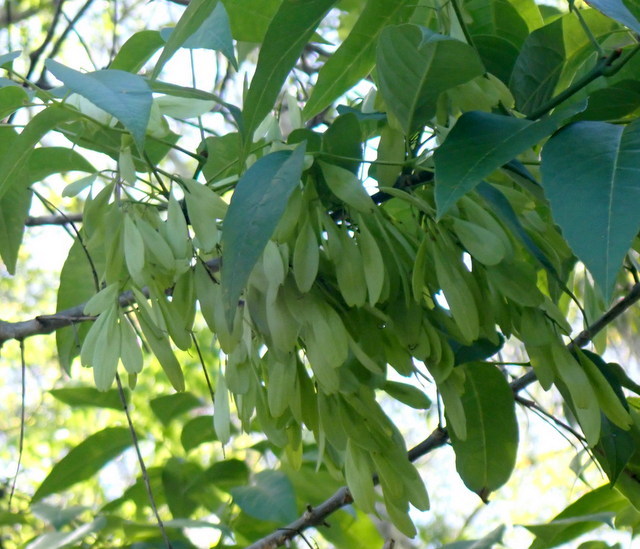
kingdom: Plantae
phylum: Tracheophyta
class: Magnoliopsida
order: Lamiales
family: Oleaceae
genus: Fraxinus
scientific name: Fraxinus caroliniana
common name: Carolina ash
